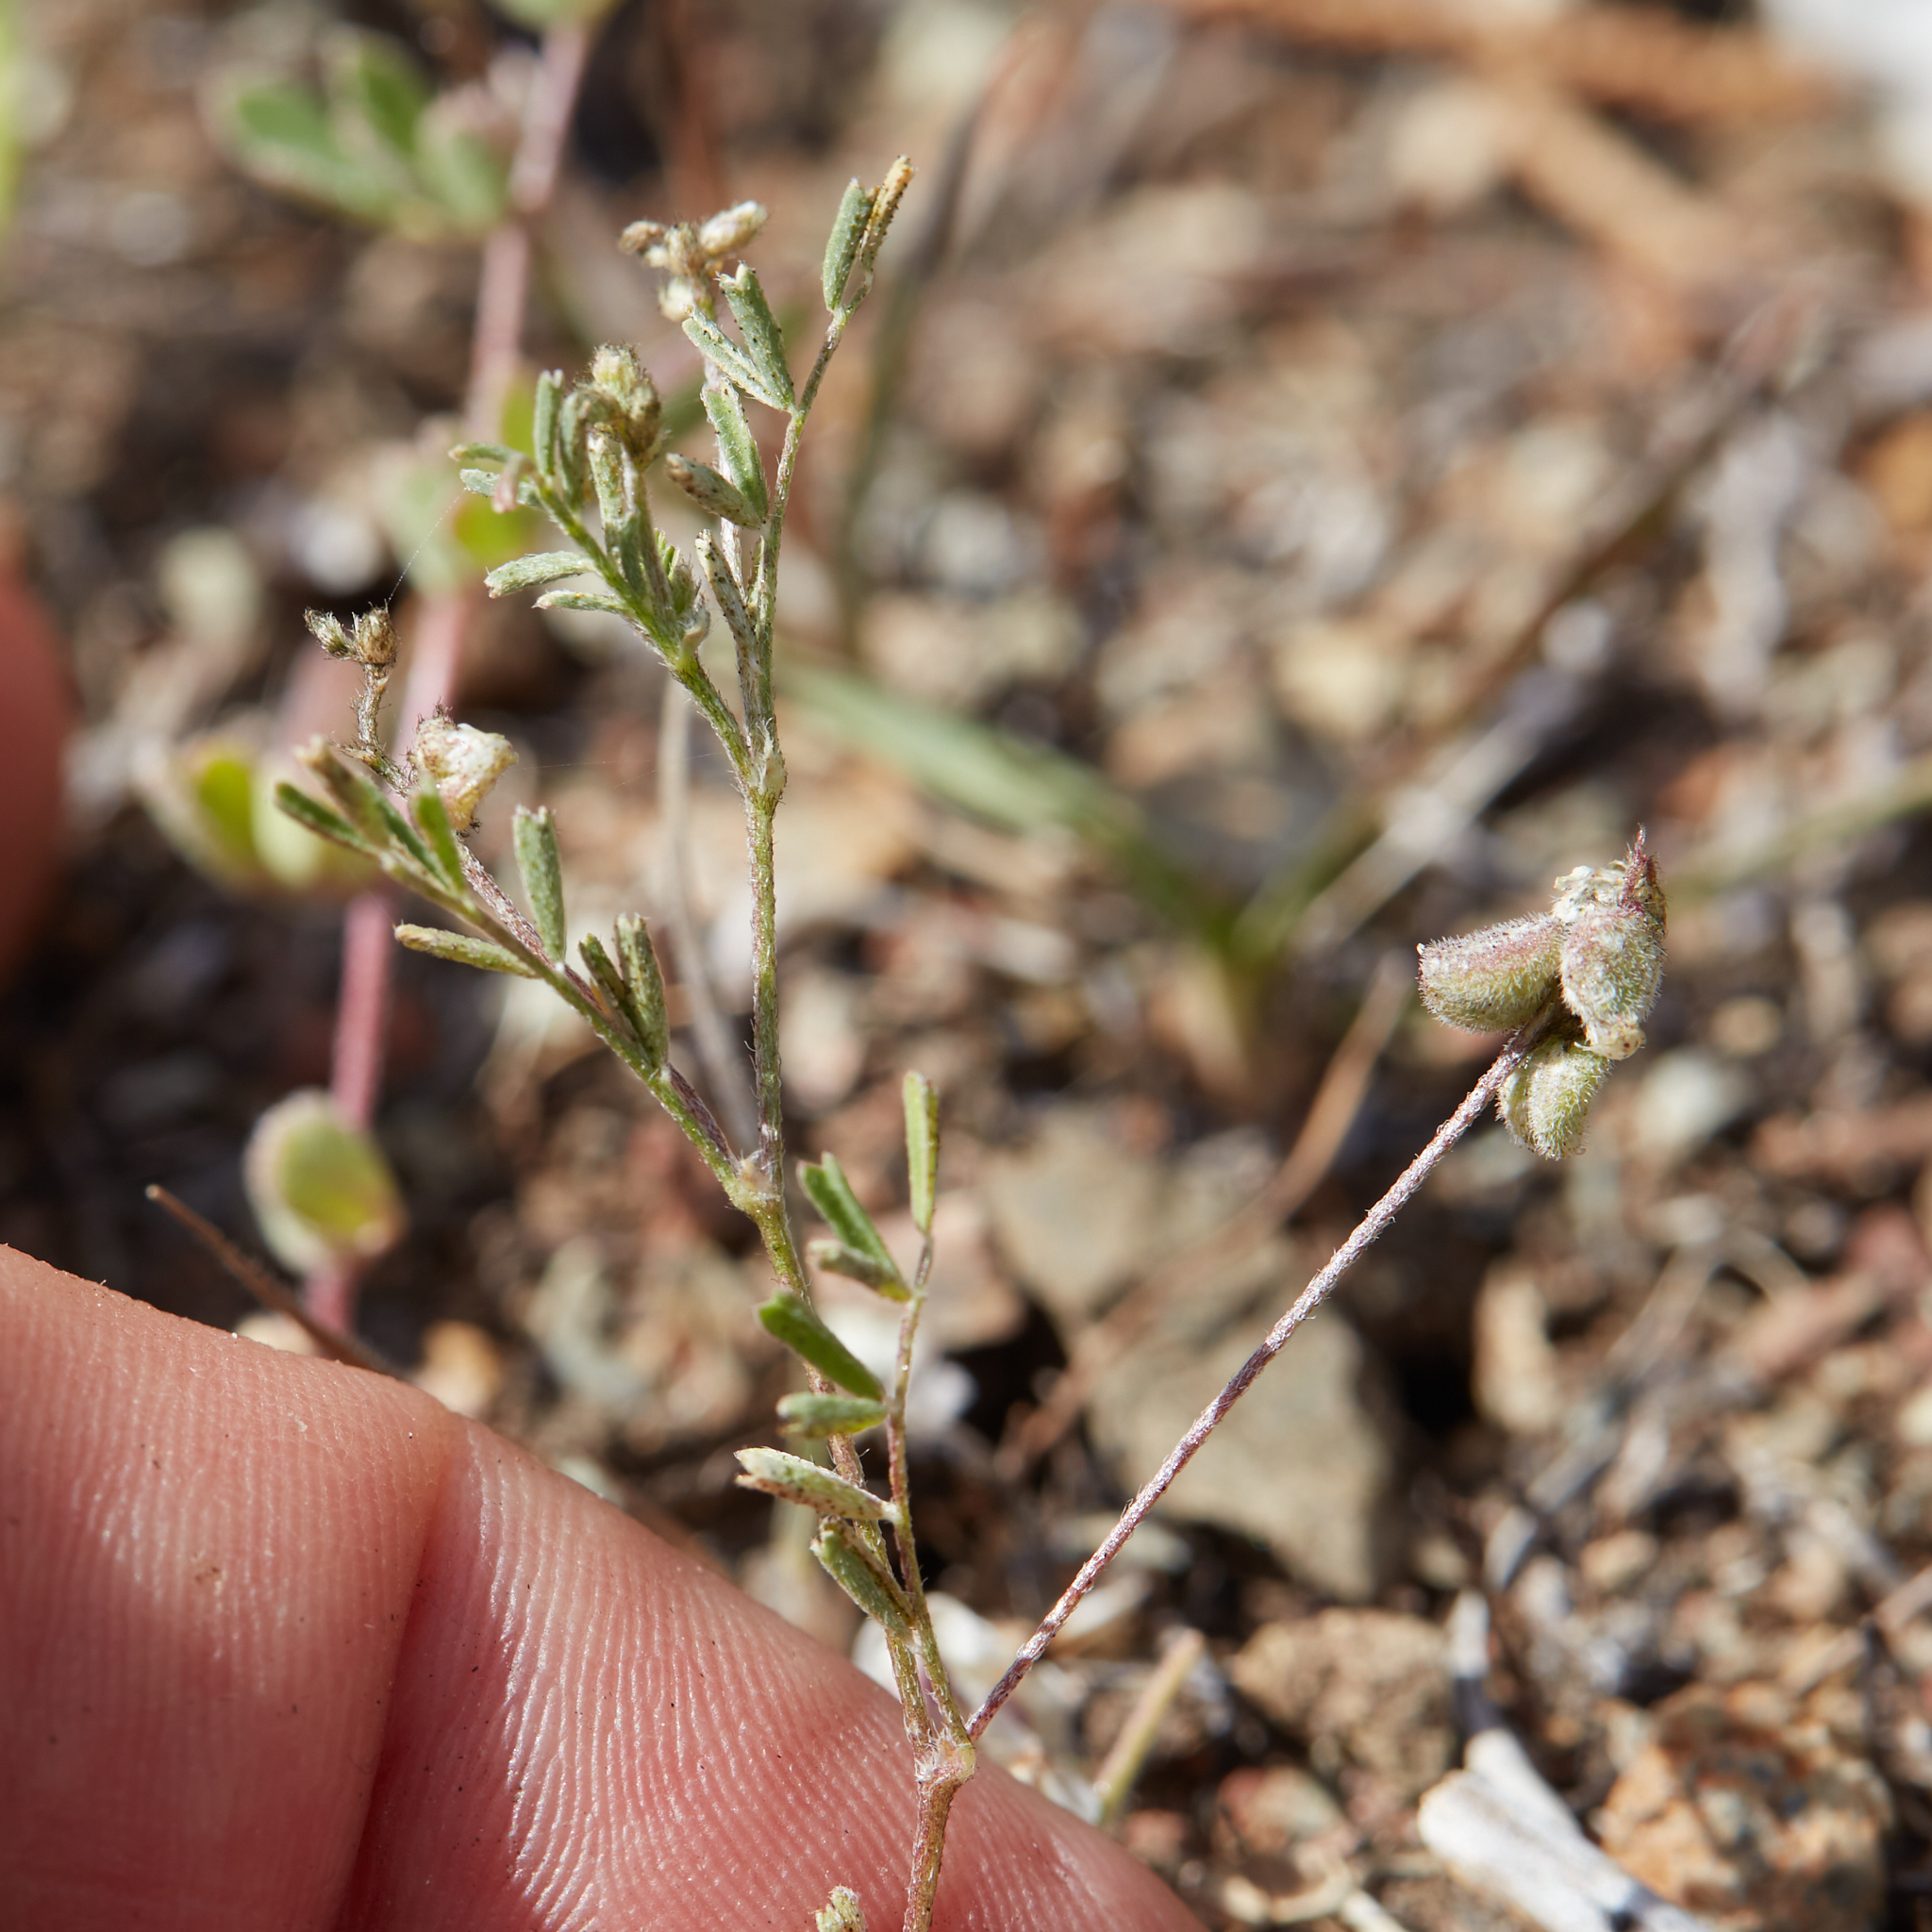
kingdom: Plantae
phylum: Tracheophyta
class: Magnoliopsida
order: Fabales
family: Fabaceae
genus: Astragalus
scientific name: Astragalus gambelianus
